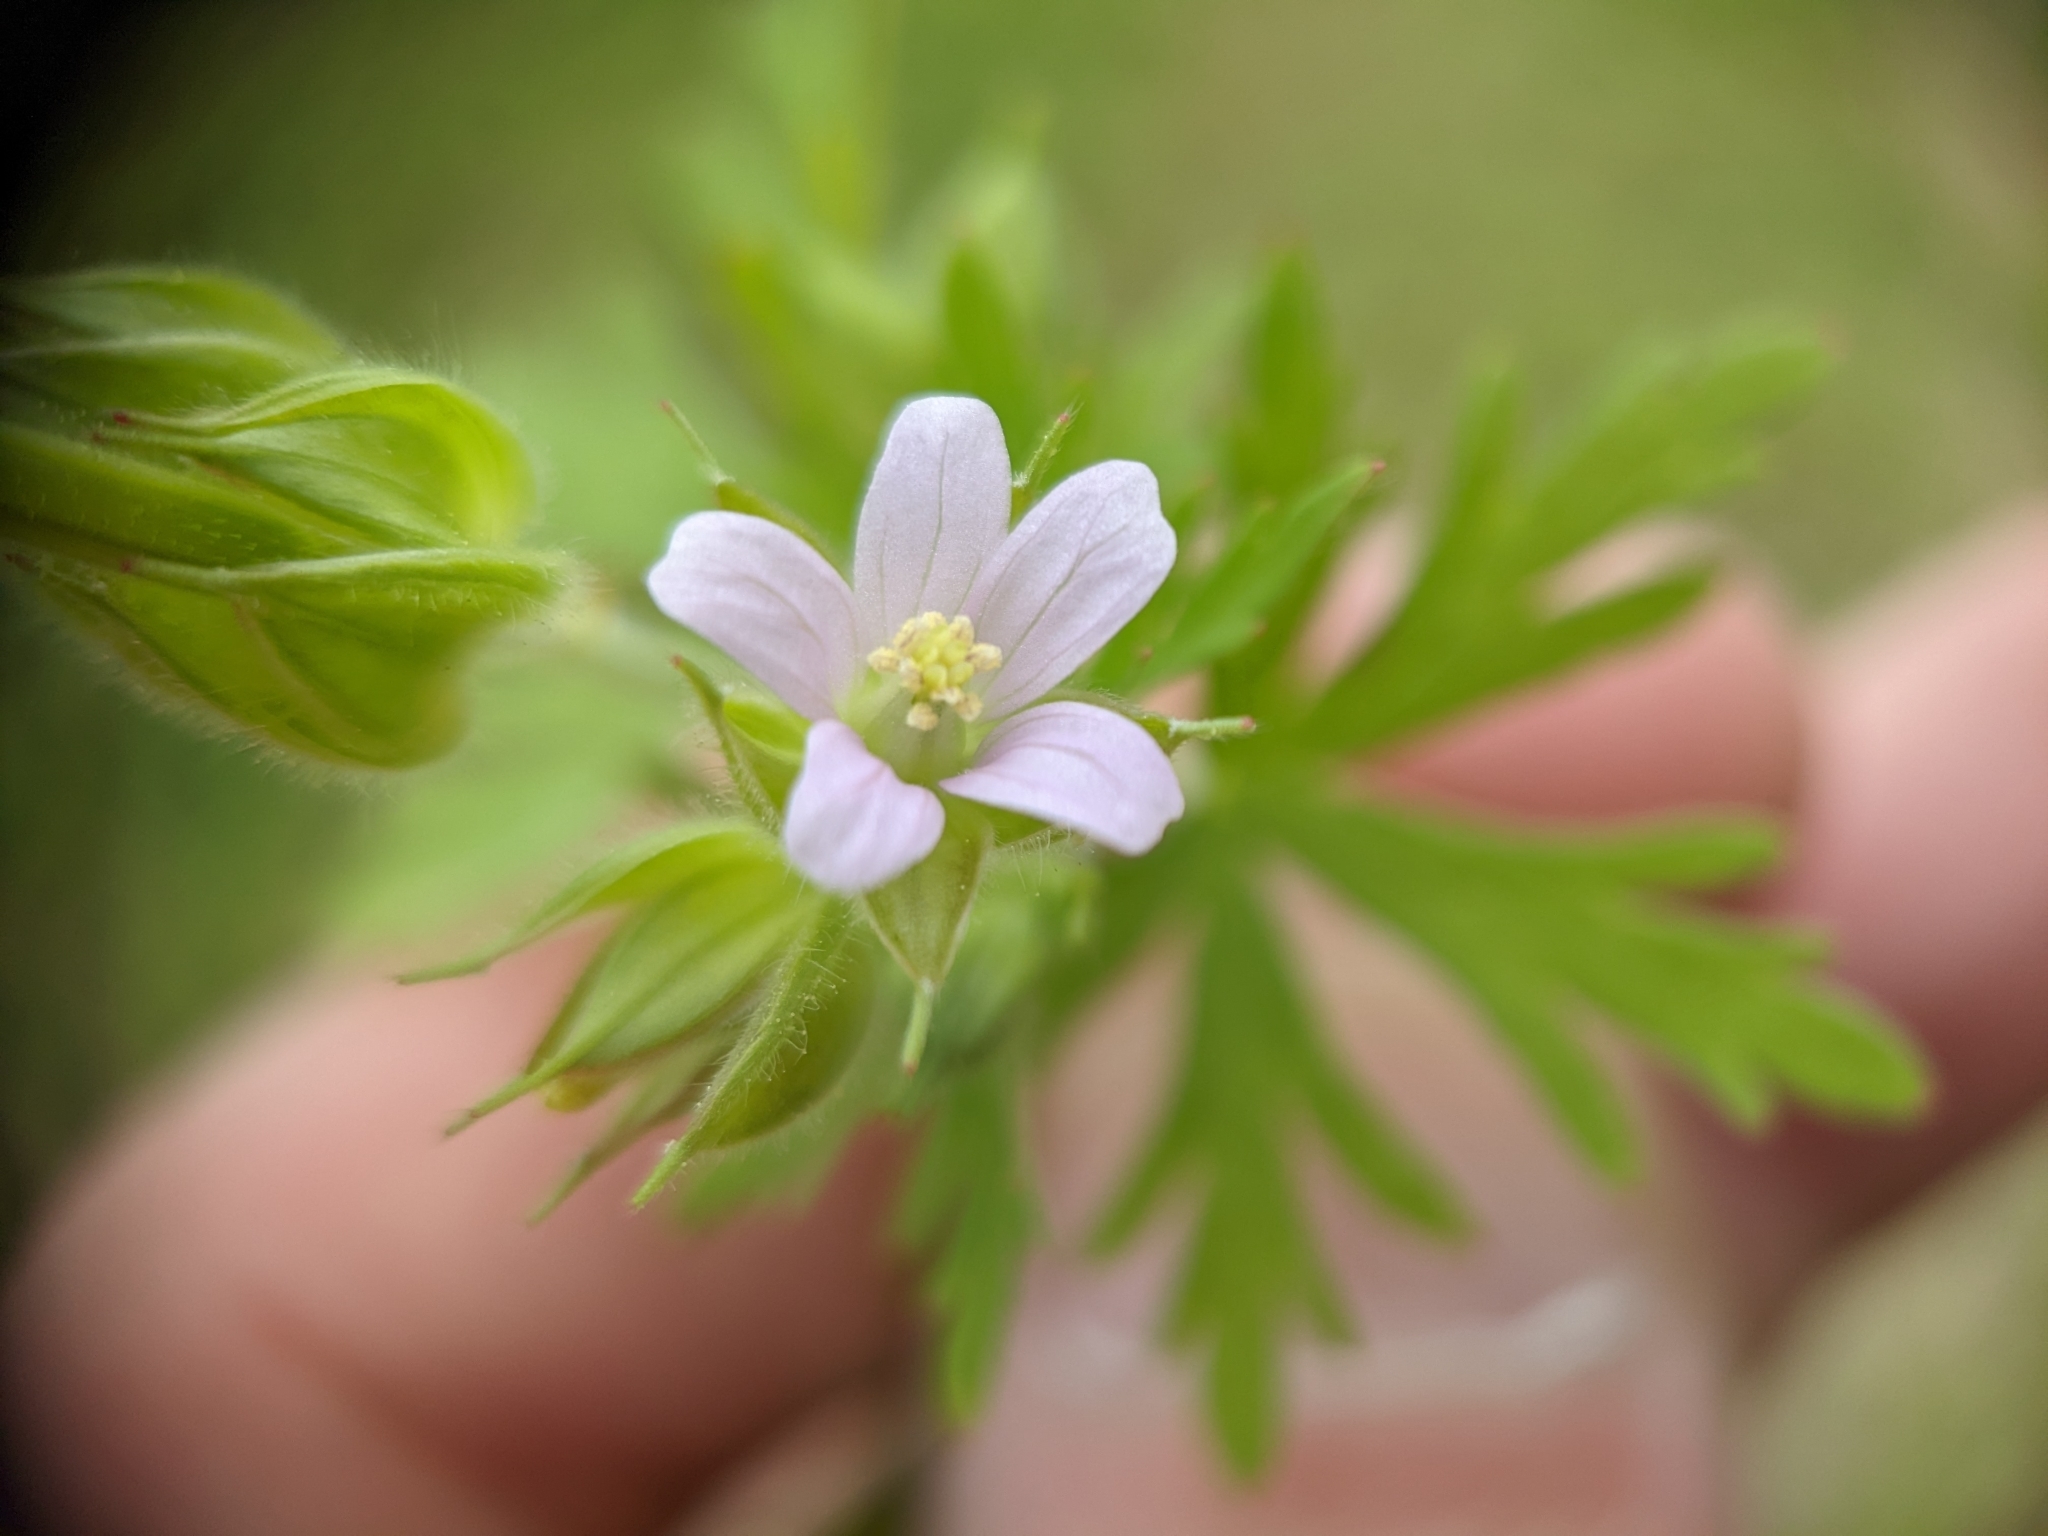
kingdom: Plantae
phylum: Tracheophyta
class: Magnoliopsida
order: Geraniales
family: Geraniaceae
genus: Geranium
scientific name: Geranium carolinianum
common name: Carolina crane's-bill
